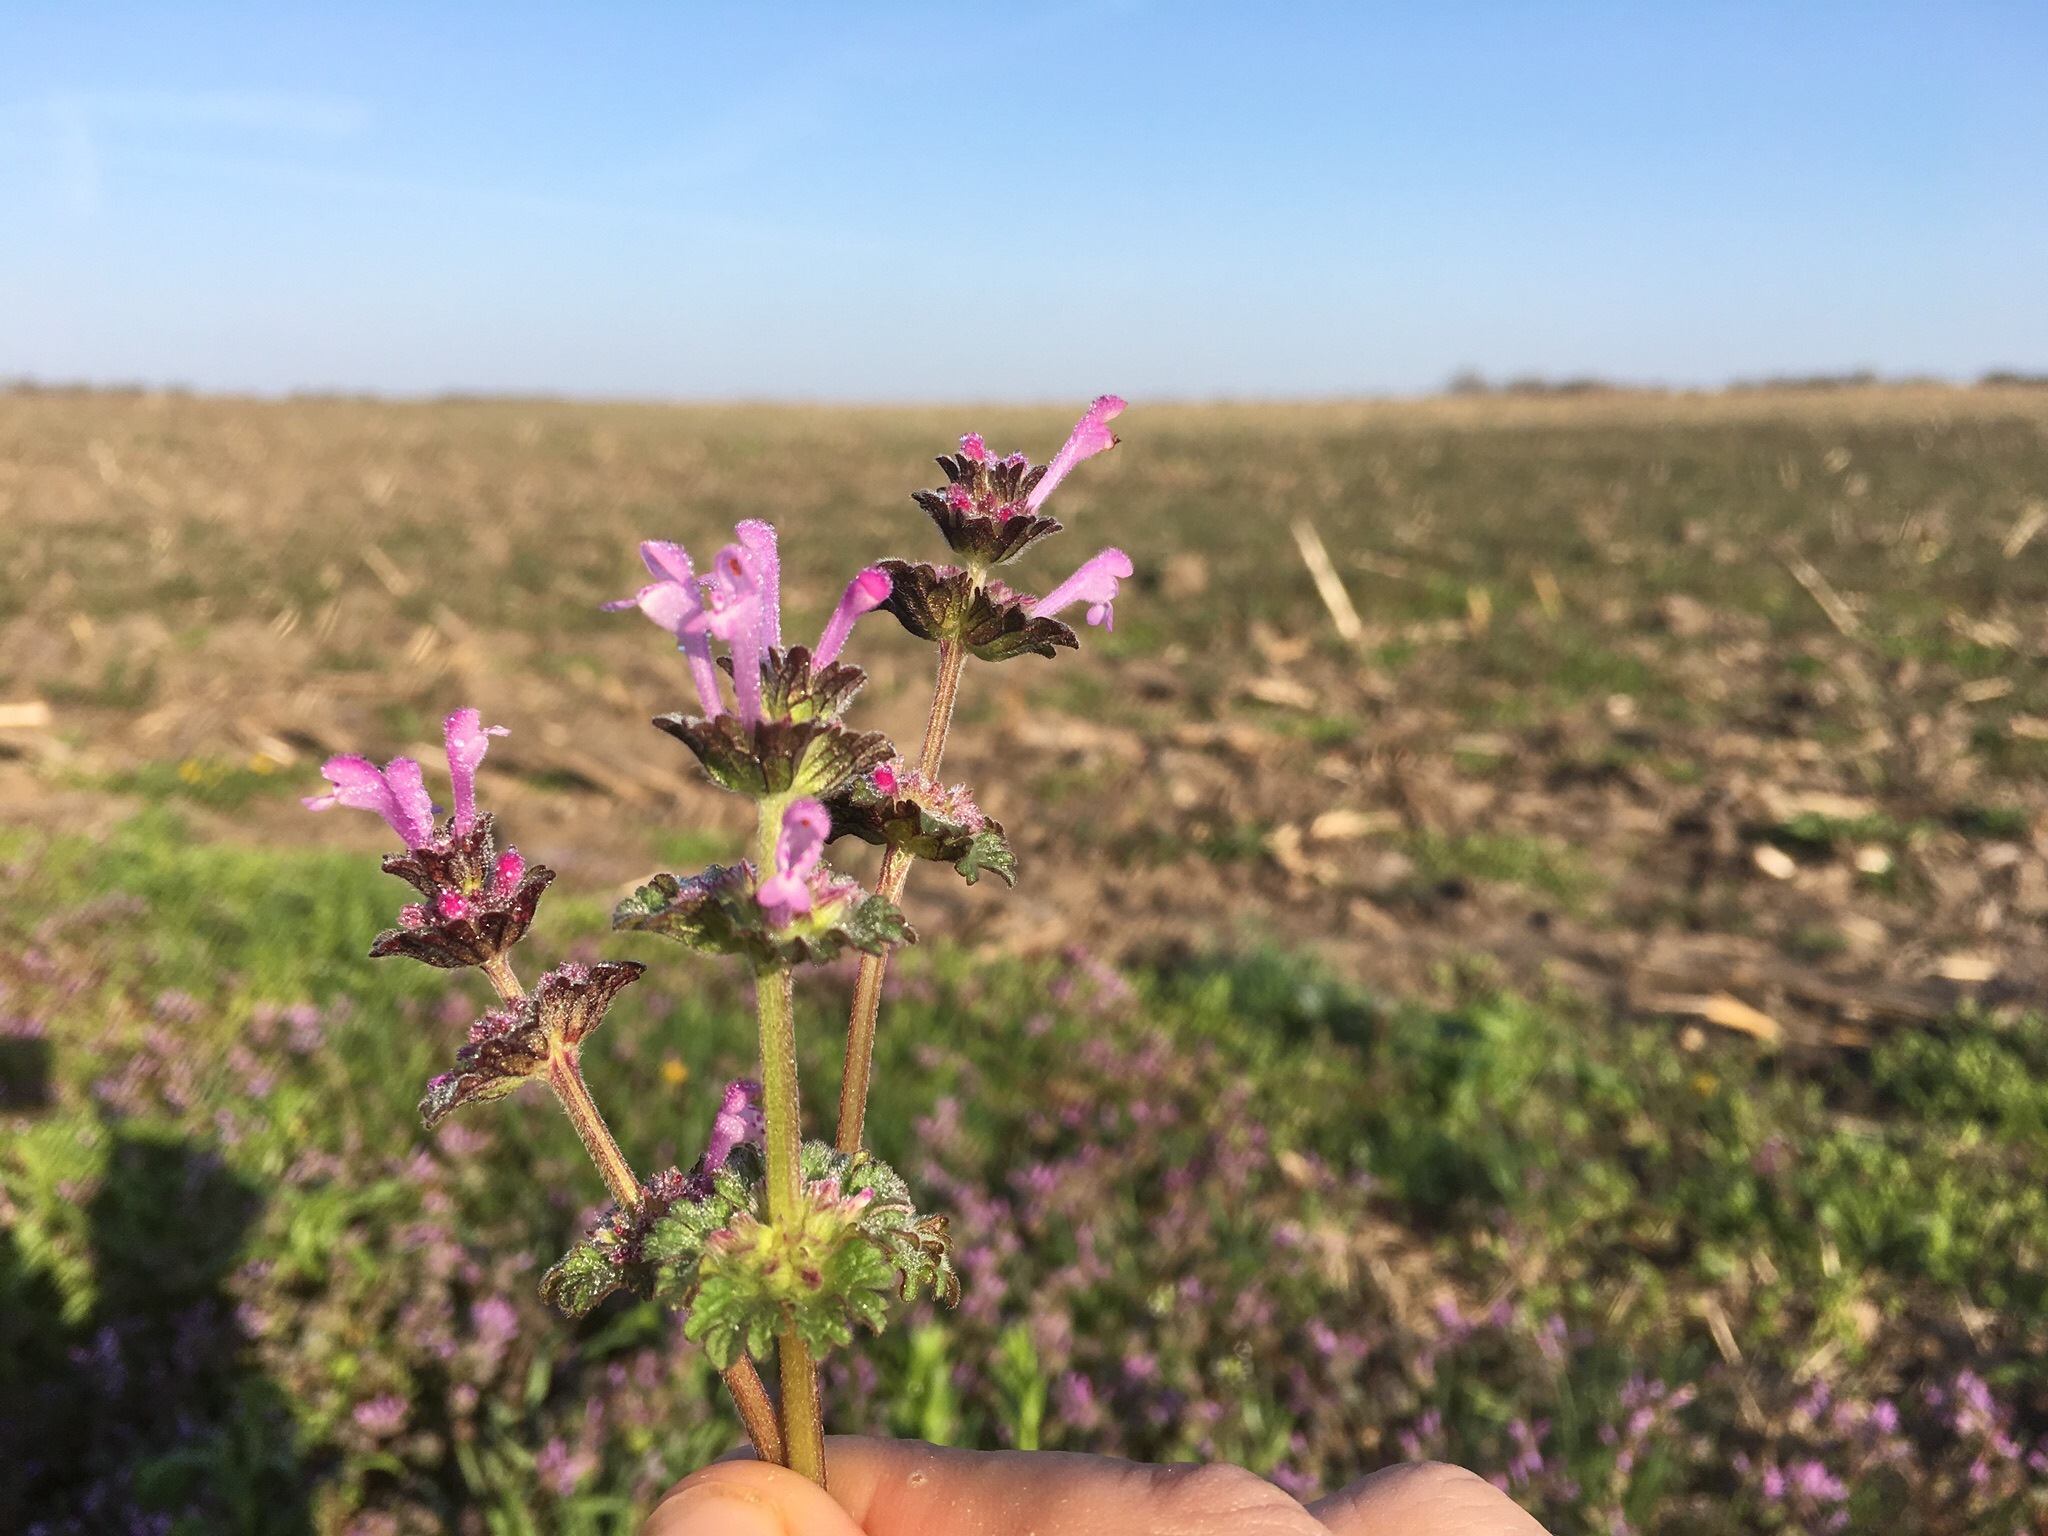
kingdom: Plantae
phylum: Tracheophyta
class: Magnoliopsida
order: Lamiales
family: Lamiaceae
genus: Lamium
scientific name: Lamium amplexicaule
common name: Henbit dead-nettle
